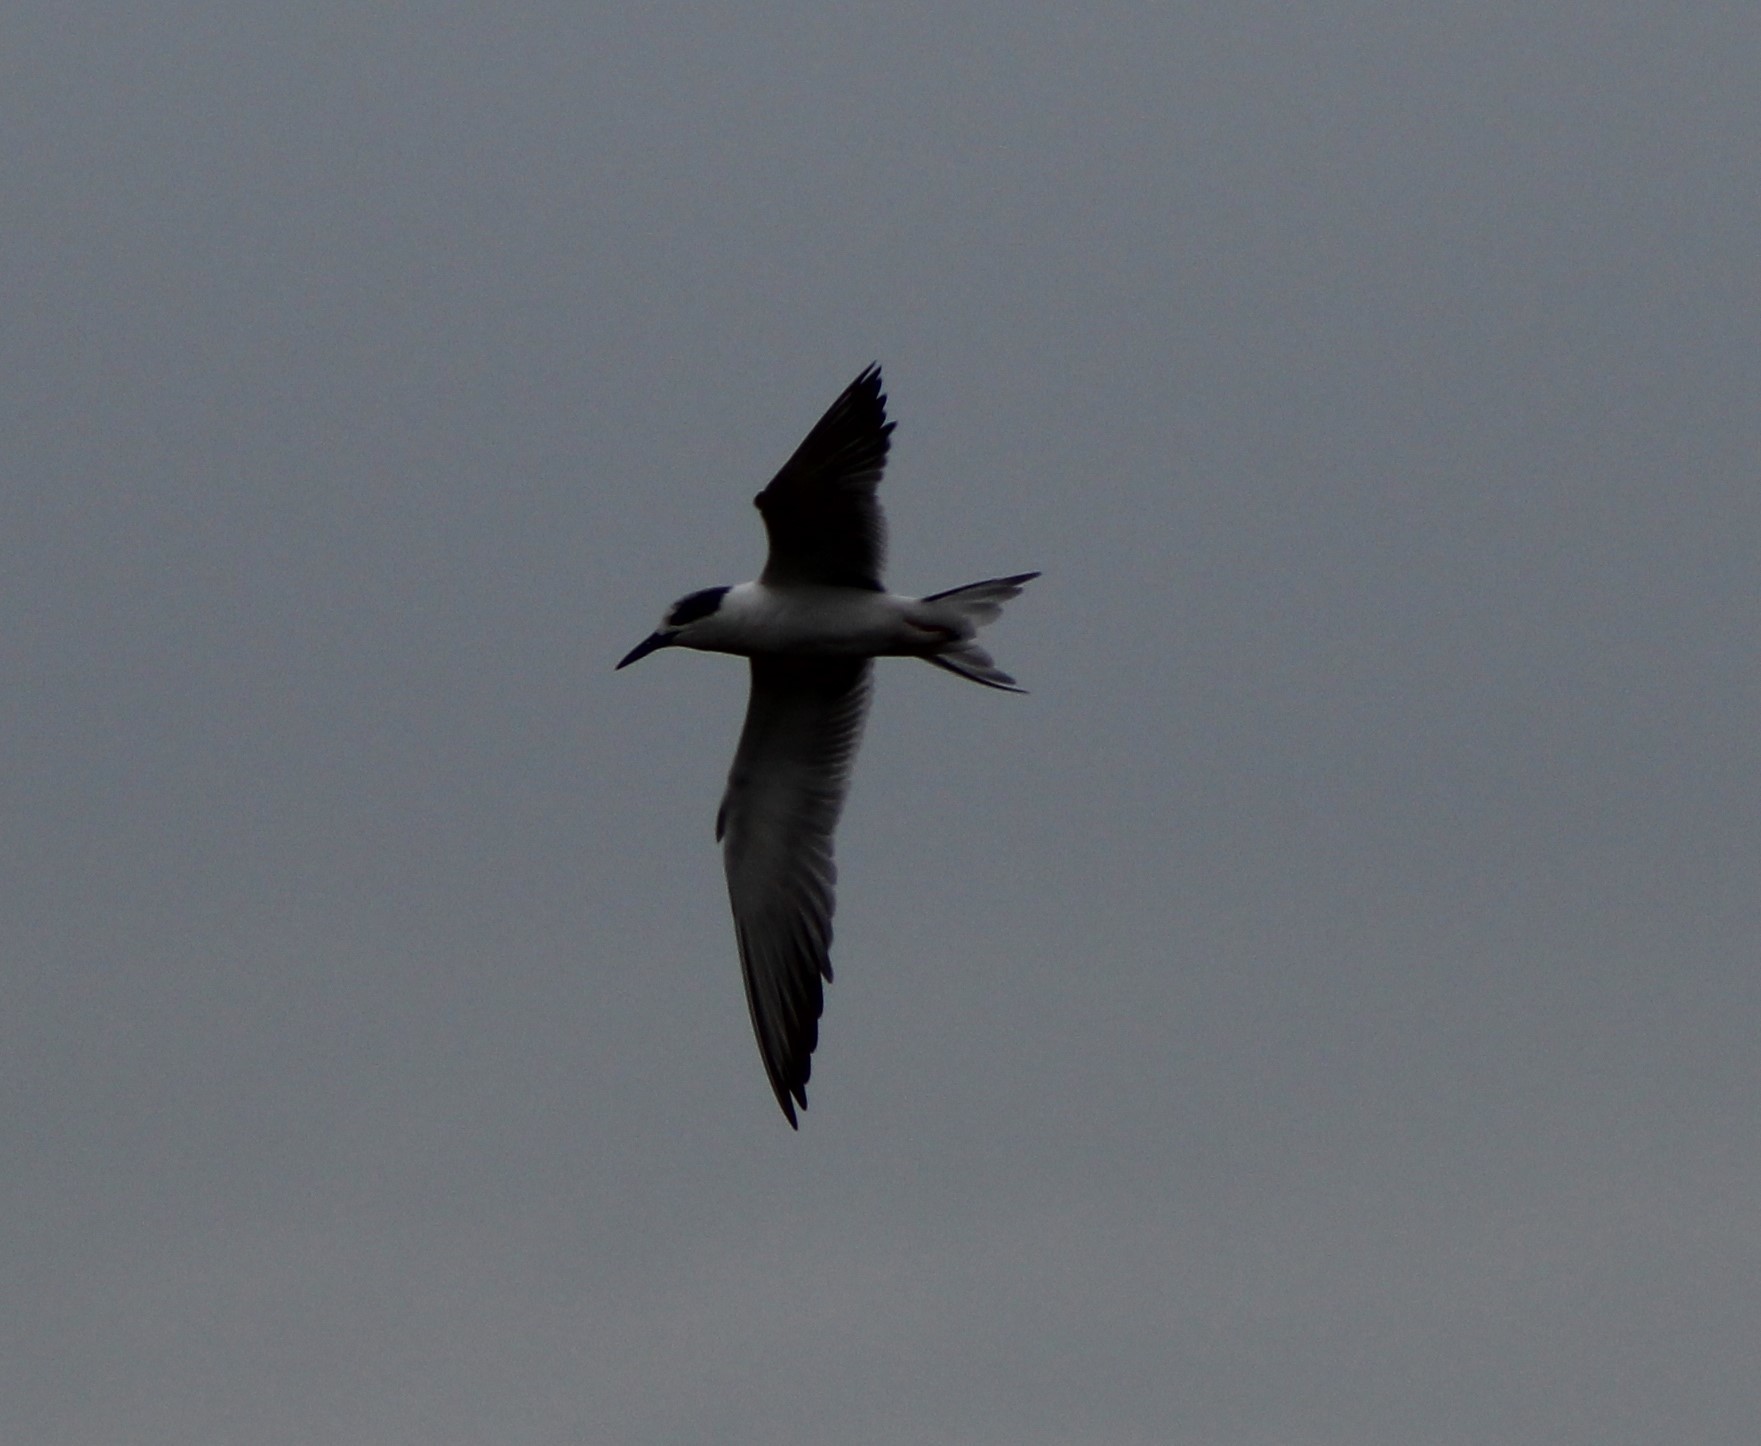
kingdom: Animalia
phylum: Chordata
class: Aves
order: Charadriiformes
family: Laridae
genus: Sterna
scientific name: Sterna forsteri
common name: Forster's tern
